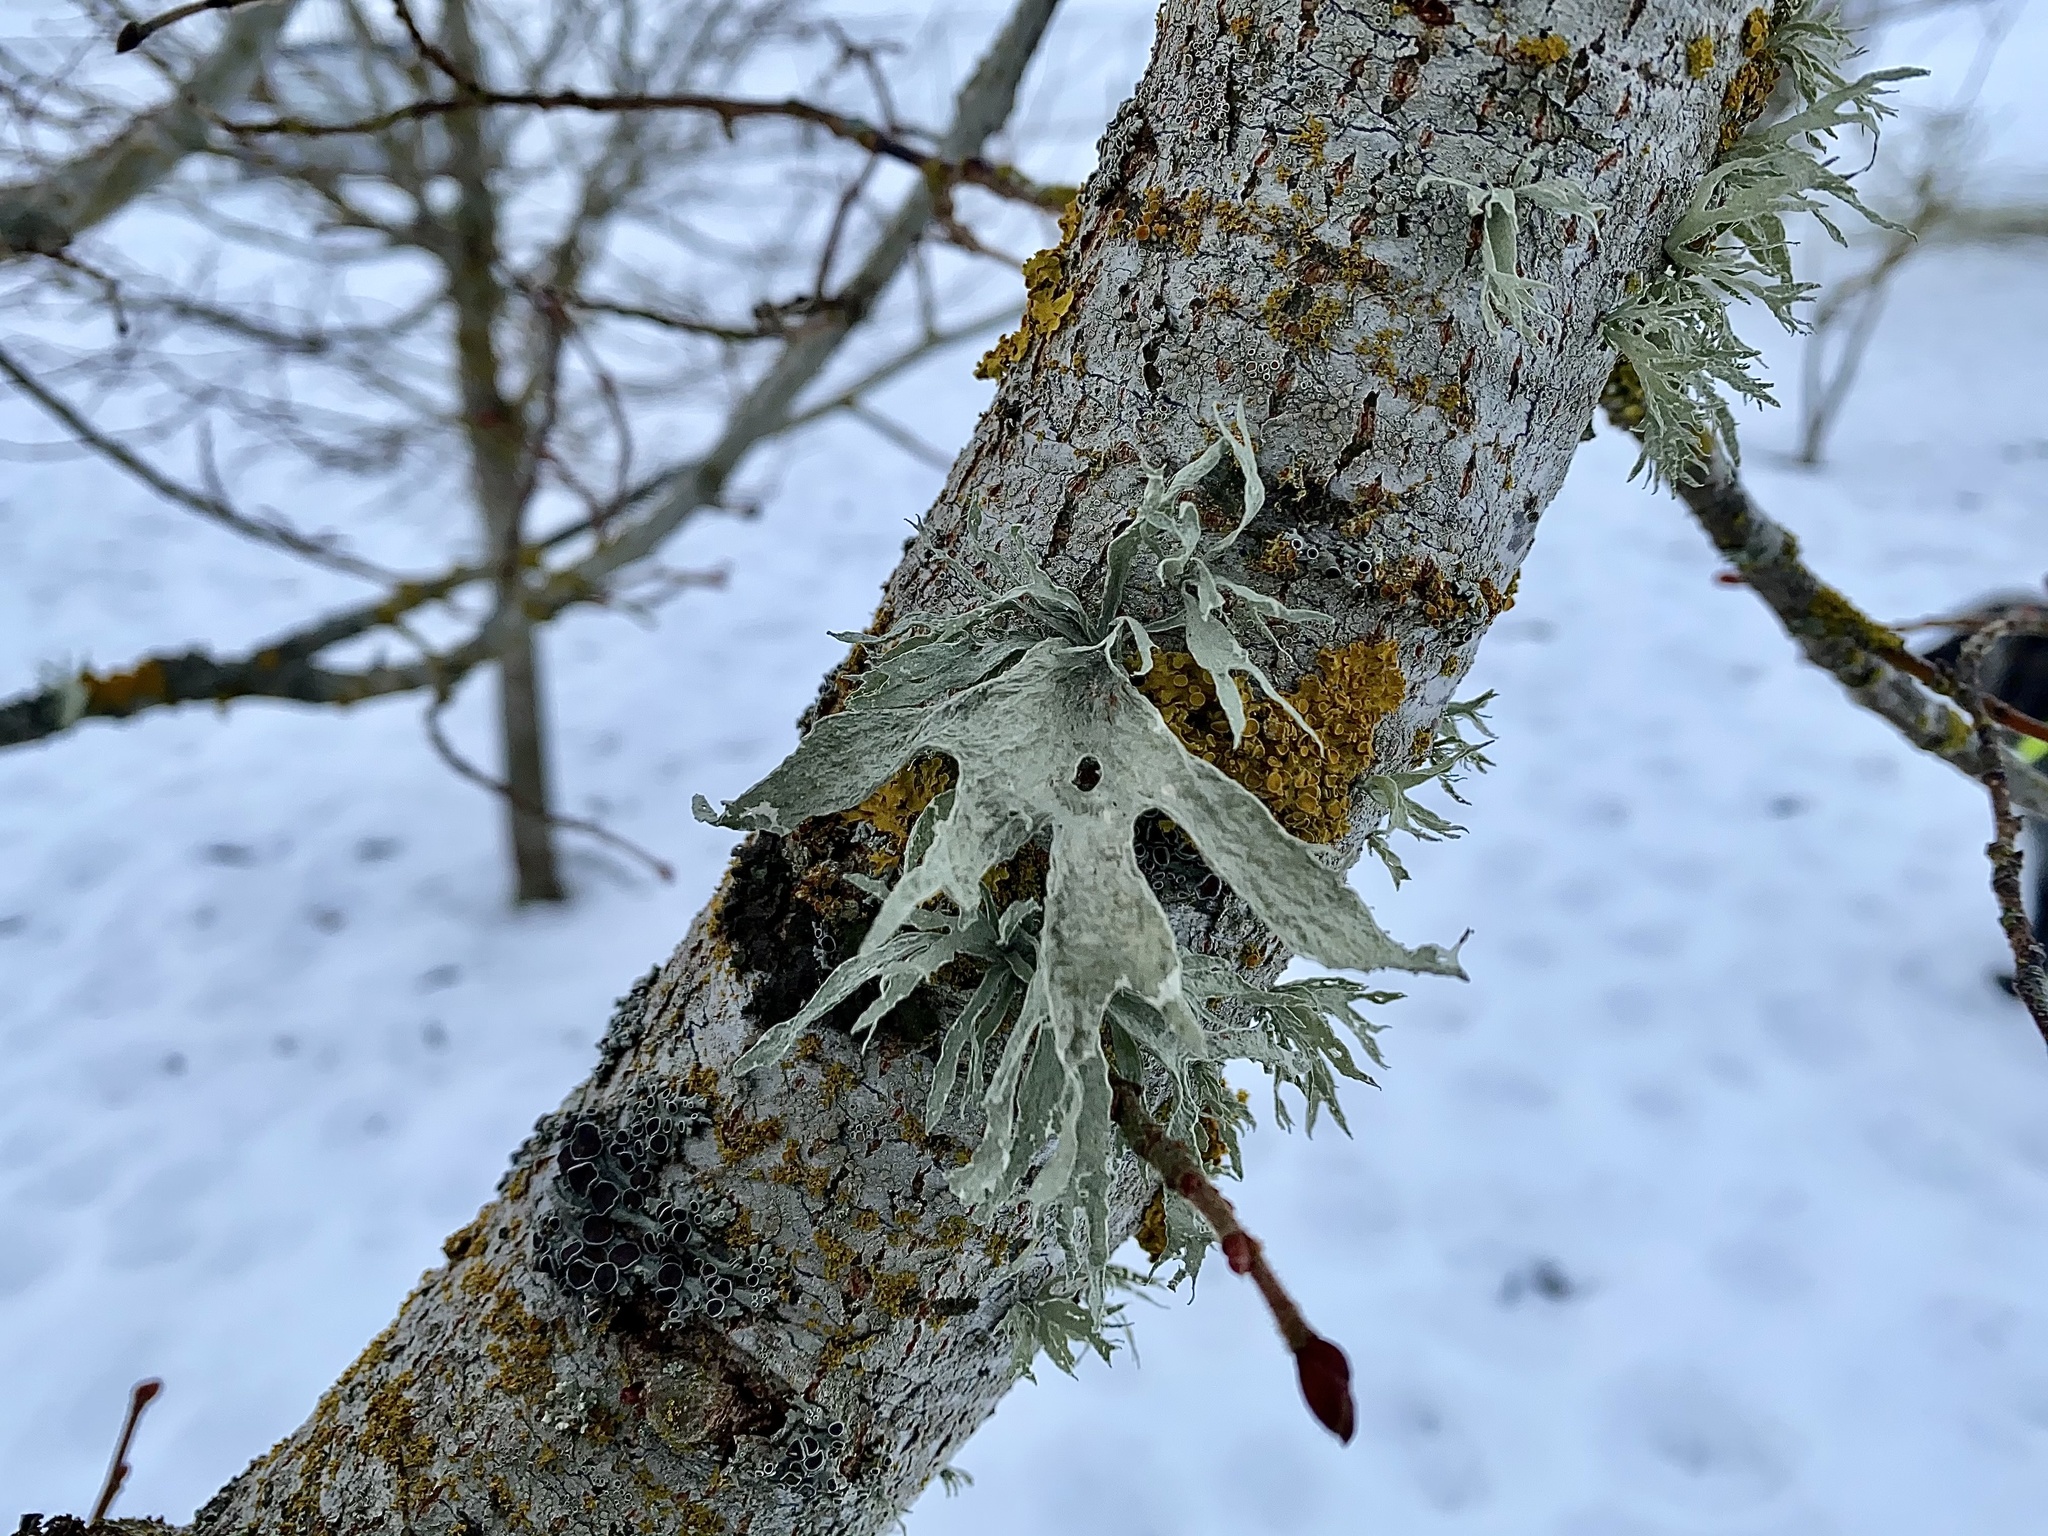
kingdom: Fungi
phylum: Ascomycota
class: Lecanoromycetes
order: Lecanorales
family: Ramalinaceae
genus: Ramalina
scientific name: Ramalina fraxinea
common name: Cartilage lichen
